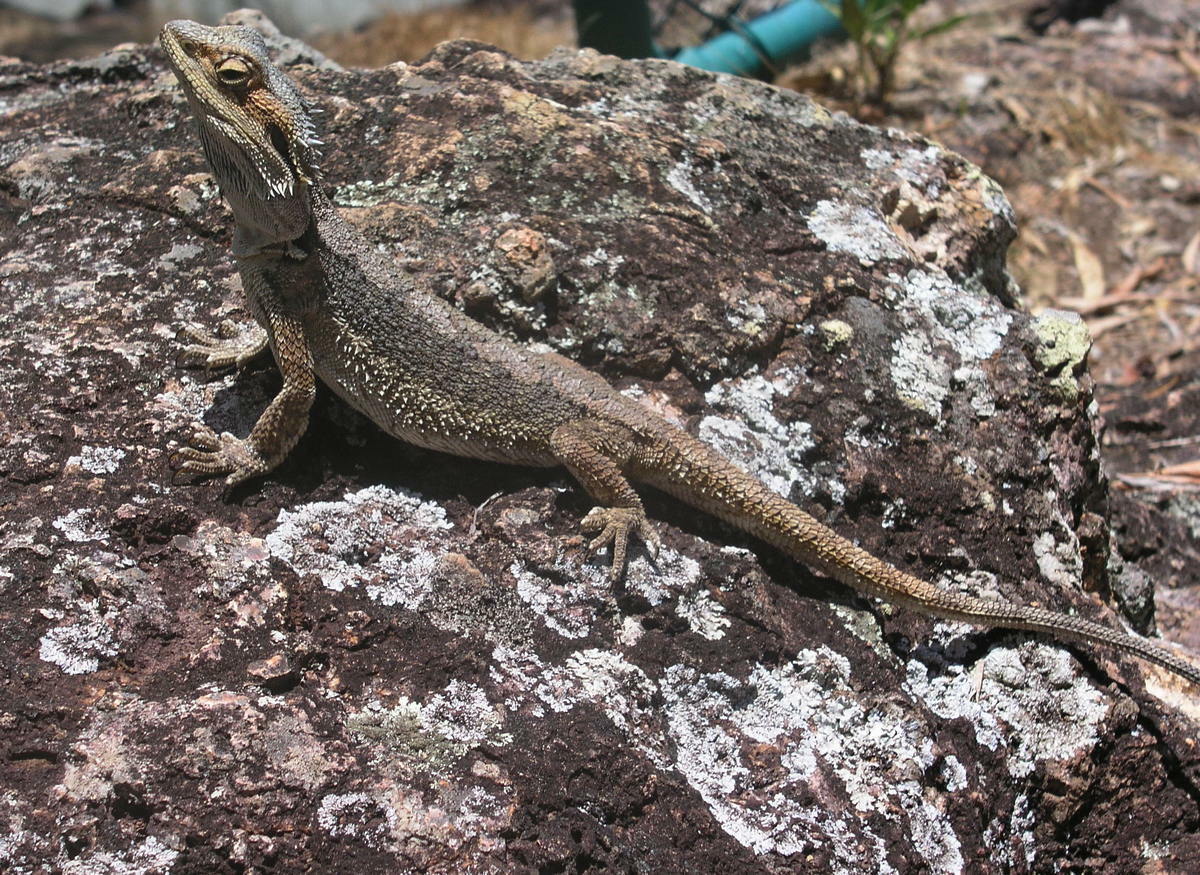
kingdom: Animalia
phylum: Chordata
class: Squamata
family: Agamidae
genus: Pogona
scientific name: Pogona barbata
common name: Bearded dragon
